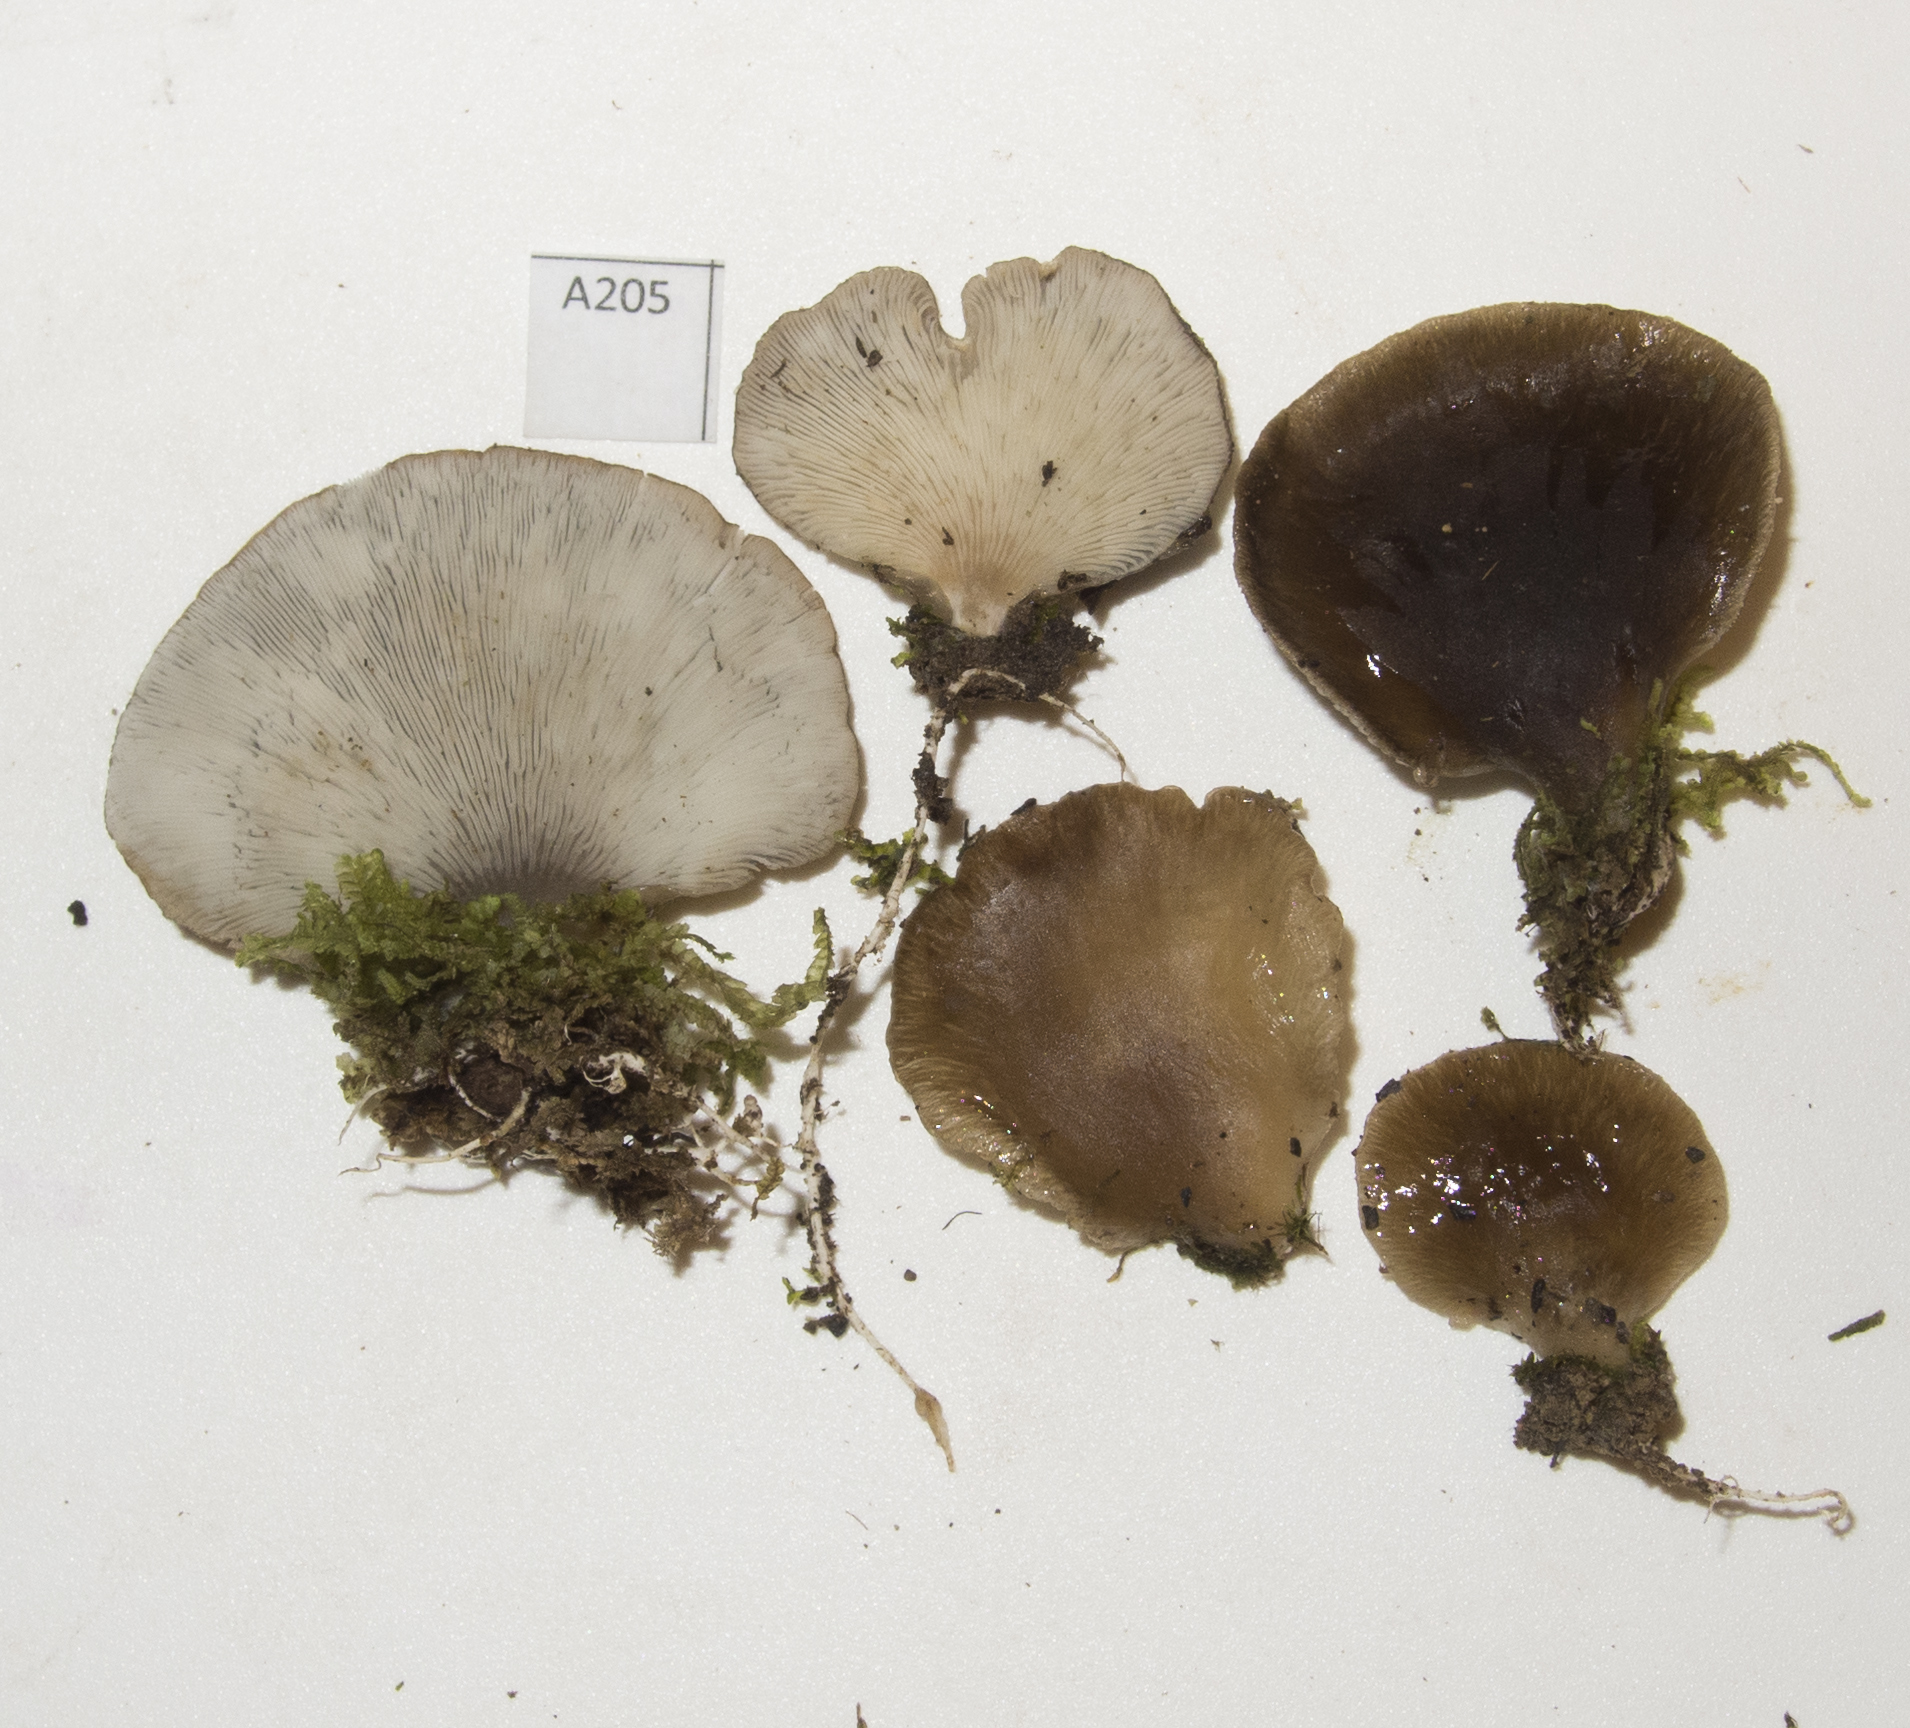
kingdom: Fungi
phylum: Basidiomycota
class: Agaricomycetes
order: Agaricales
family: Pleurotaceae
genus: Hohenbuehelia
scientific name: Hohenbuehelia luteola
